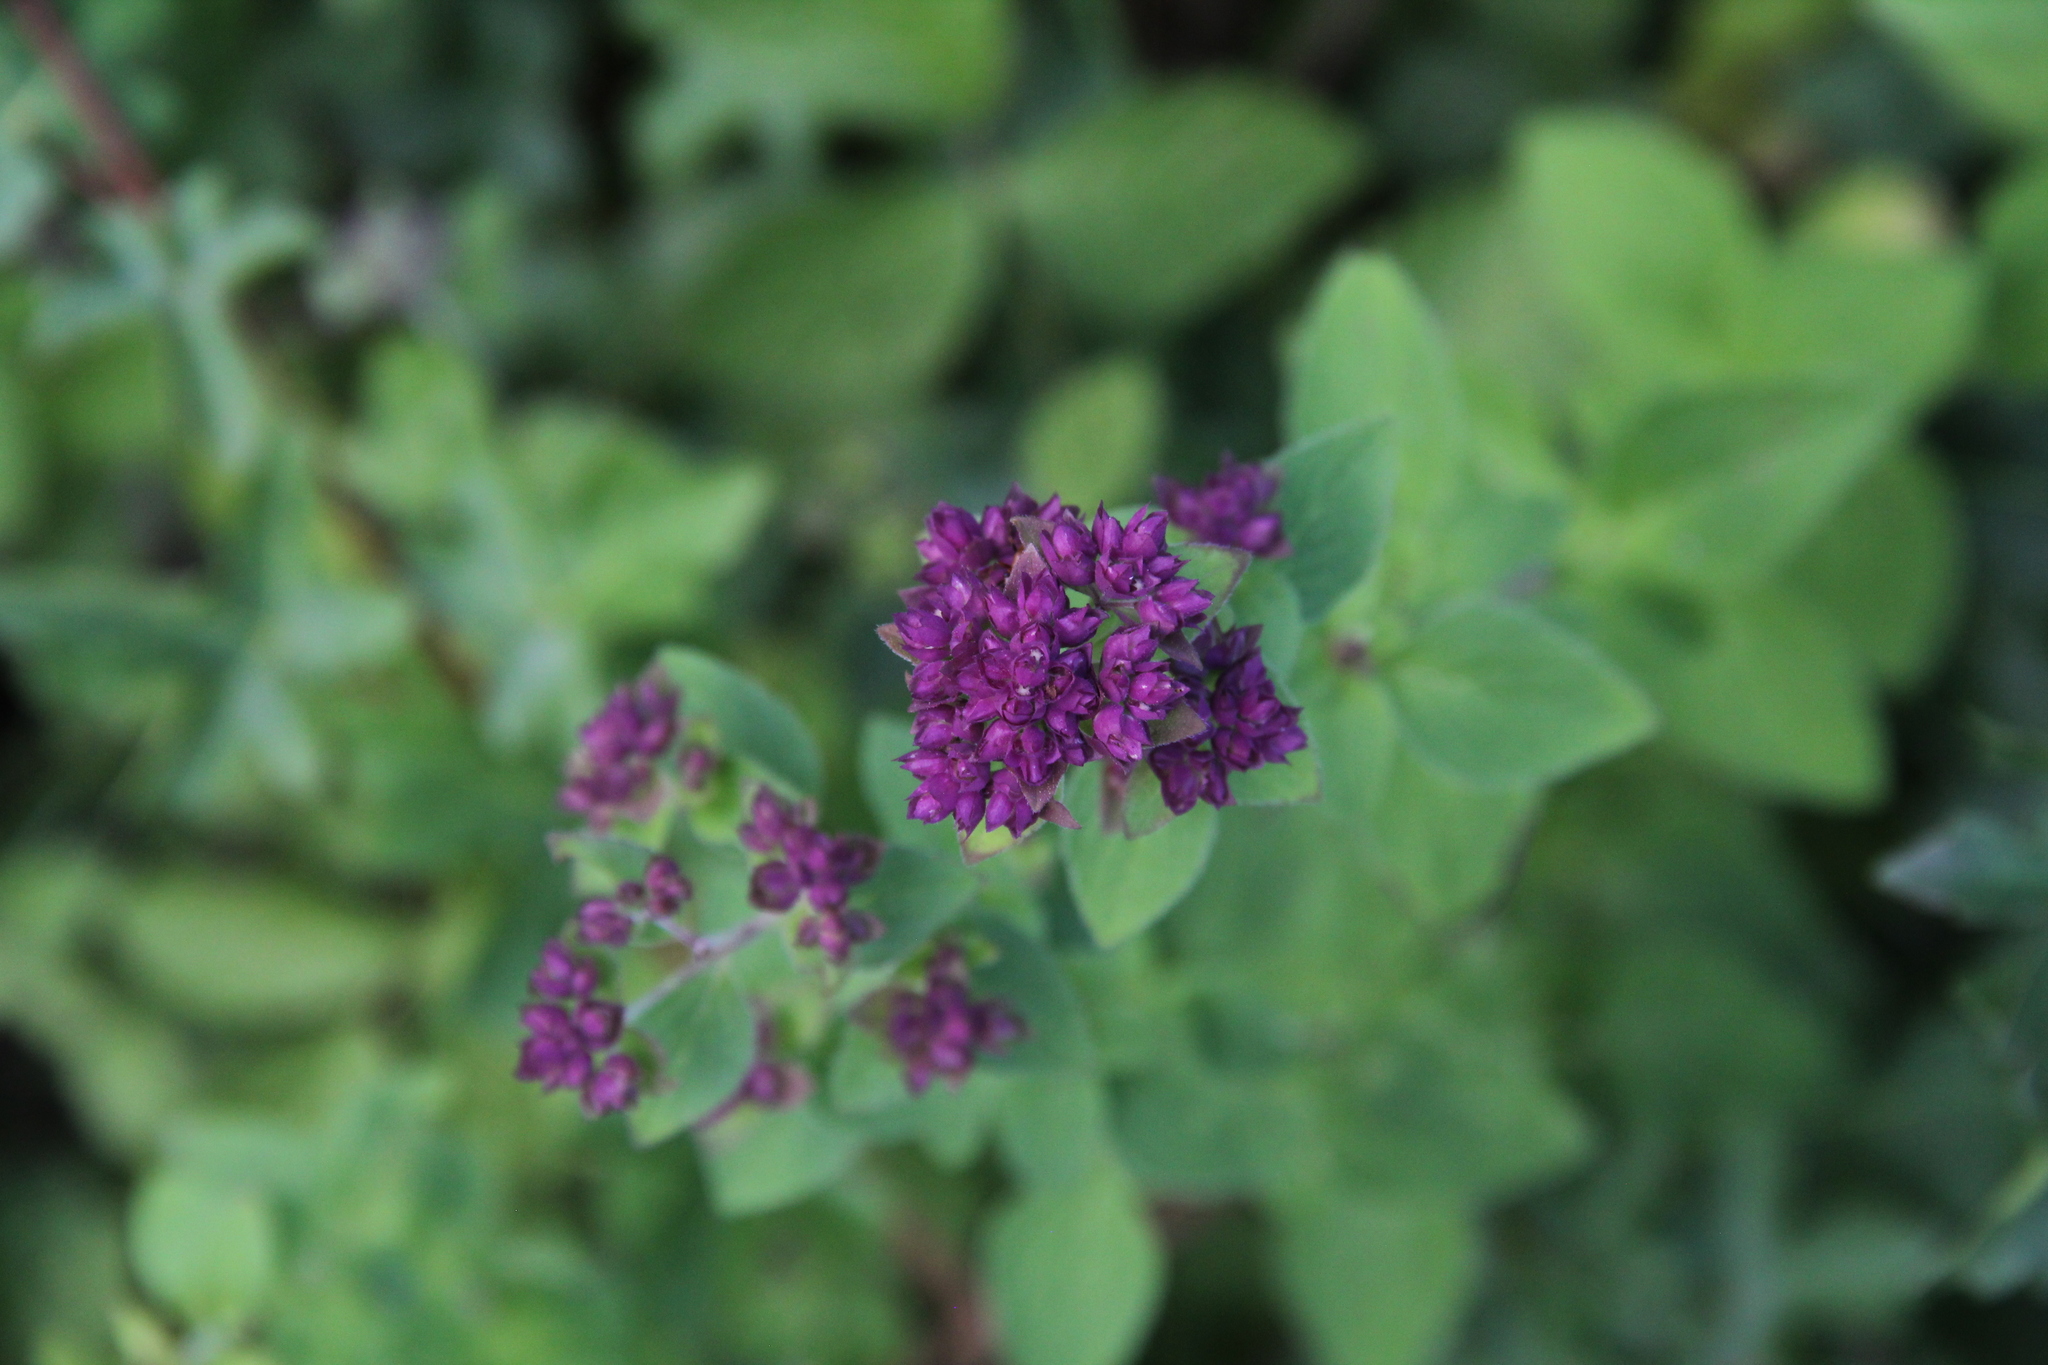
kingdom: Plantae
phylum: Tracheophyta
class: Magnoliopsida
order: Lamiales
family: Lamiaceae
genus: Origanum
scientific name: Origanum vulgare
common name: Wild marjoram
